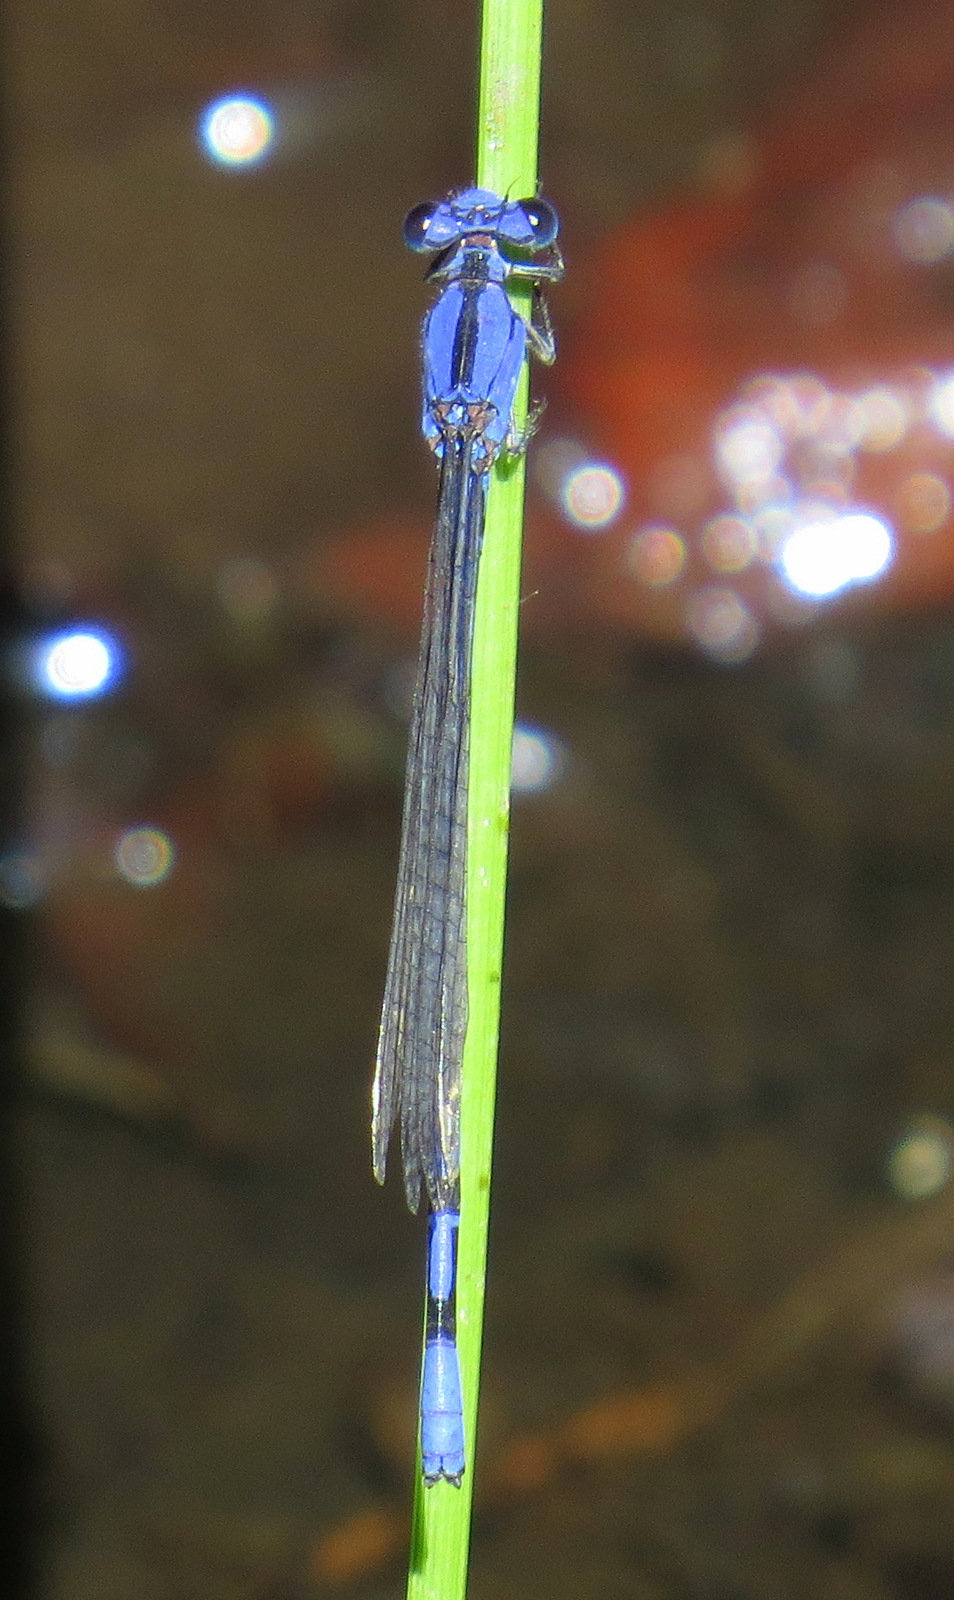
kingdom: Animalia
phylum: Arthropoda
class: Insecta
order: Odonata
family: Coenagrionidae
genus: Argia
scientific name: Argia extranea
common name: Spine-tipped dancer
